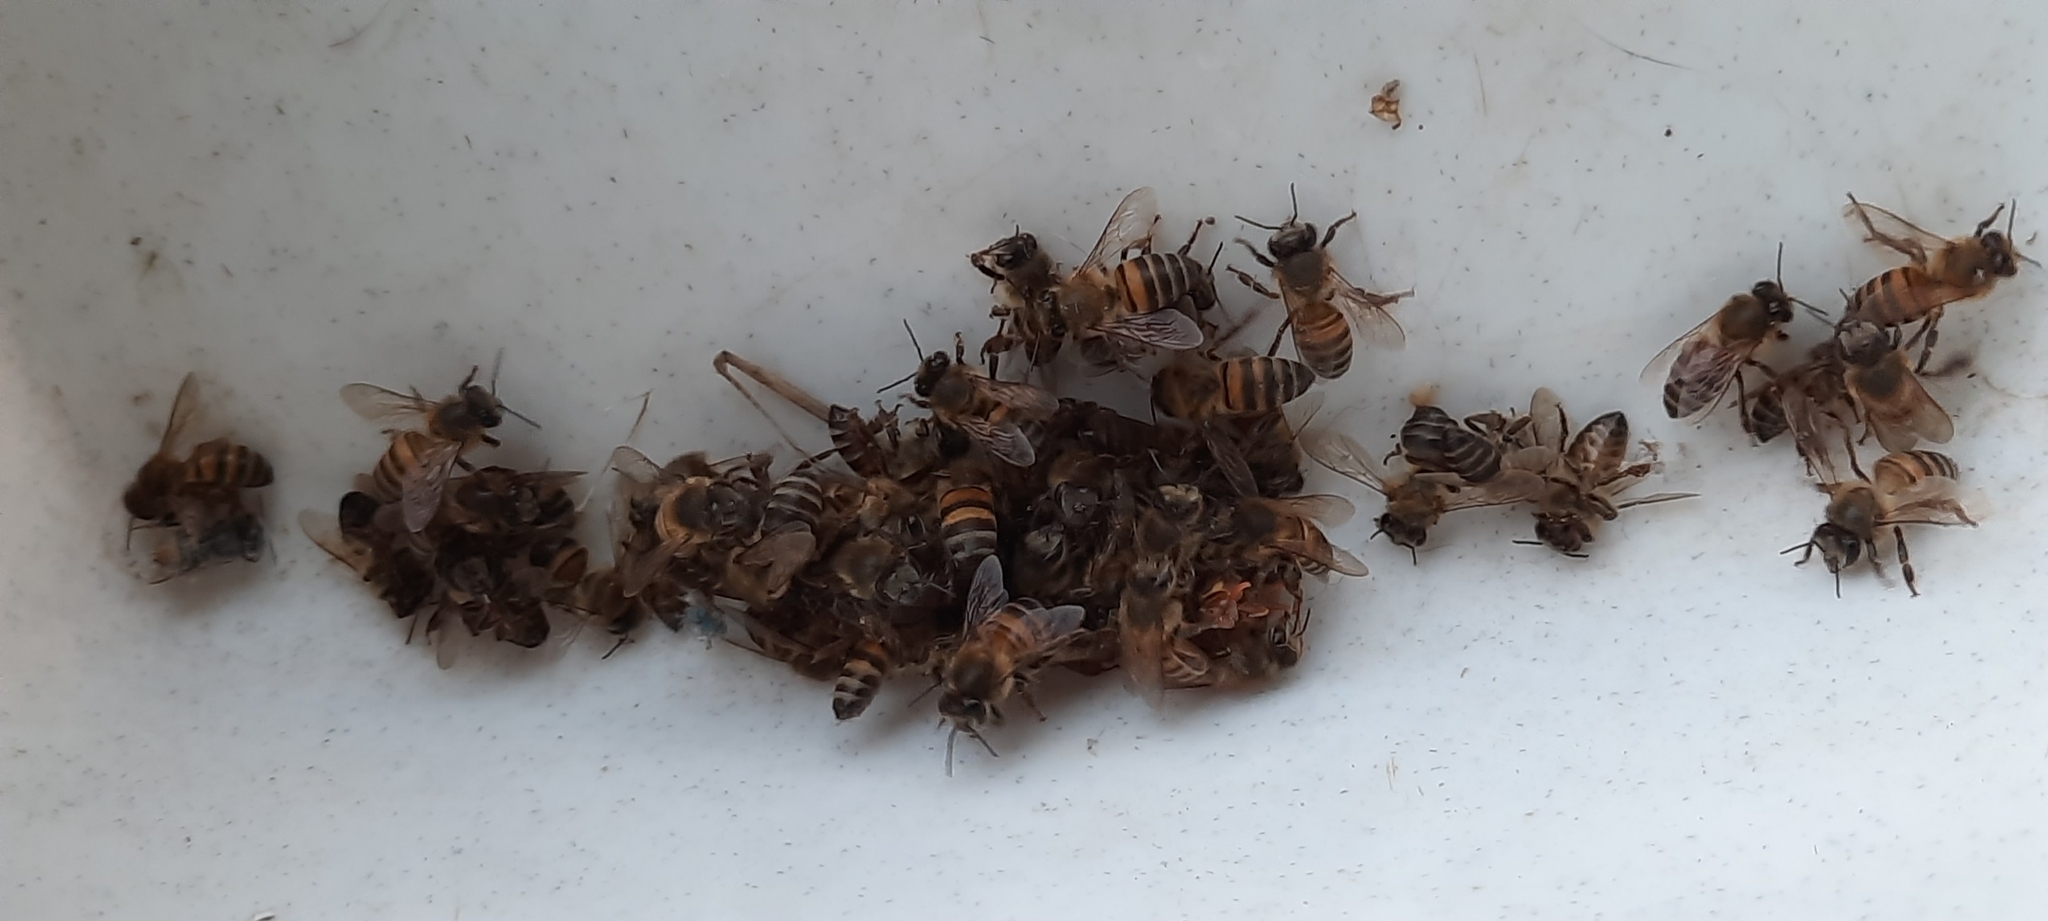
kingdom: Animalia
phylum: Arthropoda
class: Insecta
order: Hymenoptera
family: Apidae
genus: Apis
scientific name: Apis mellifera
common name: Honey bee
